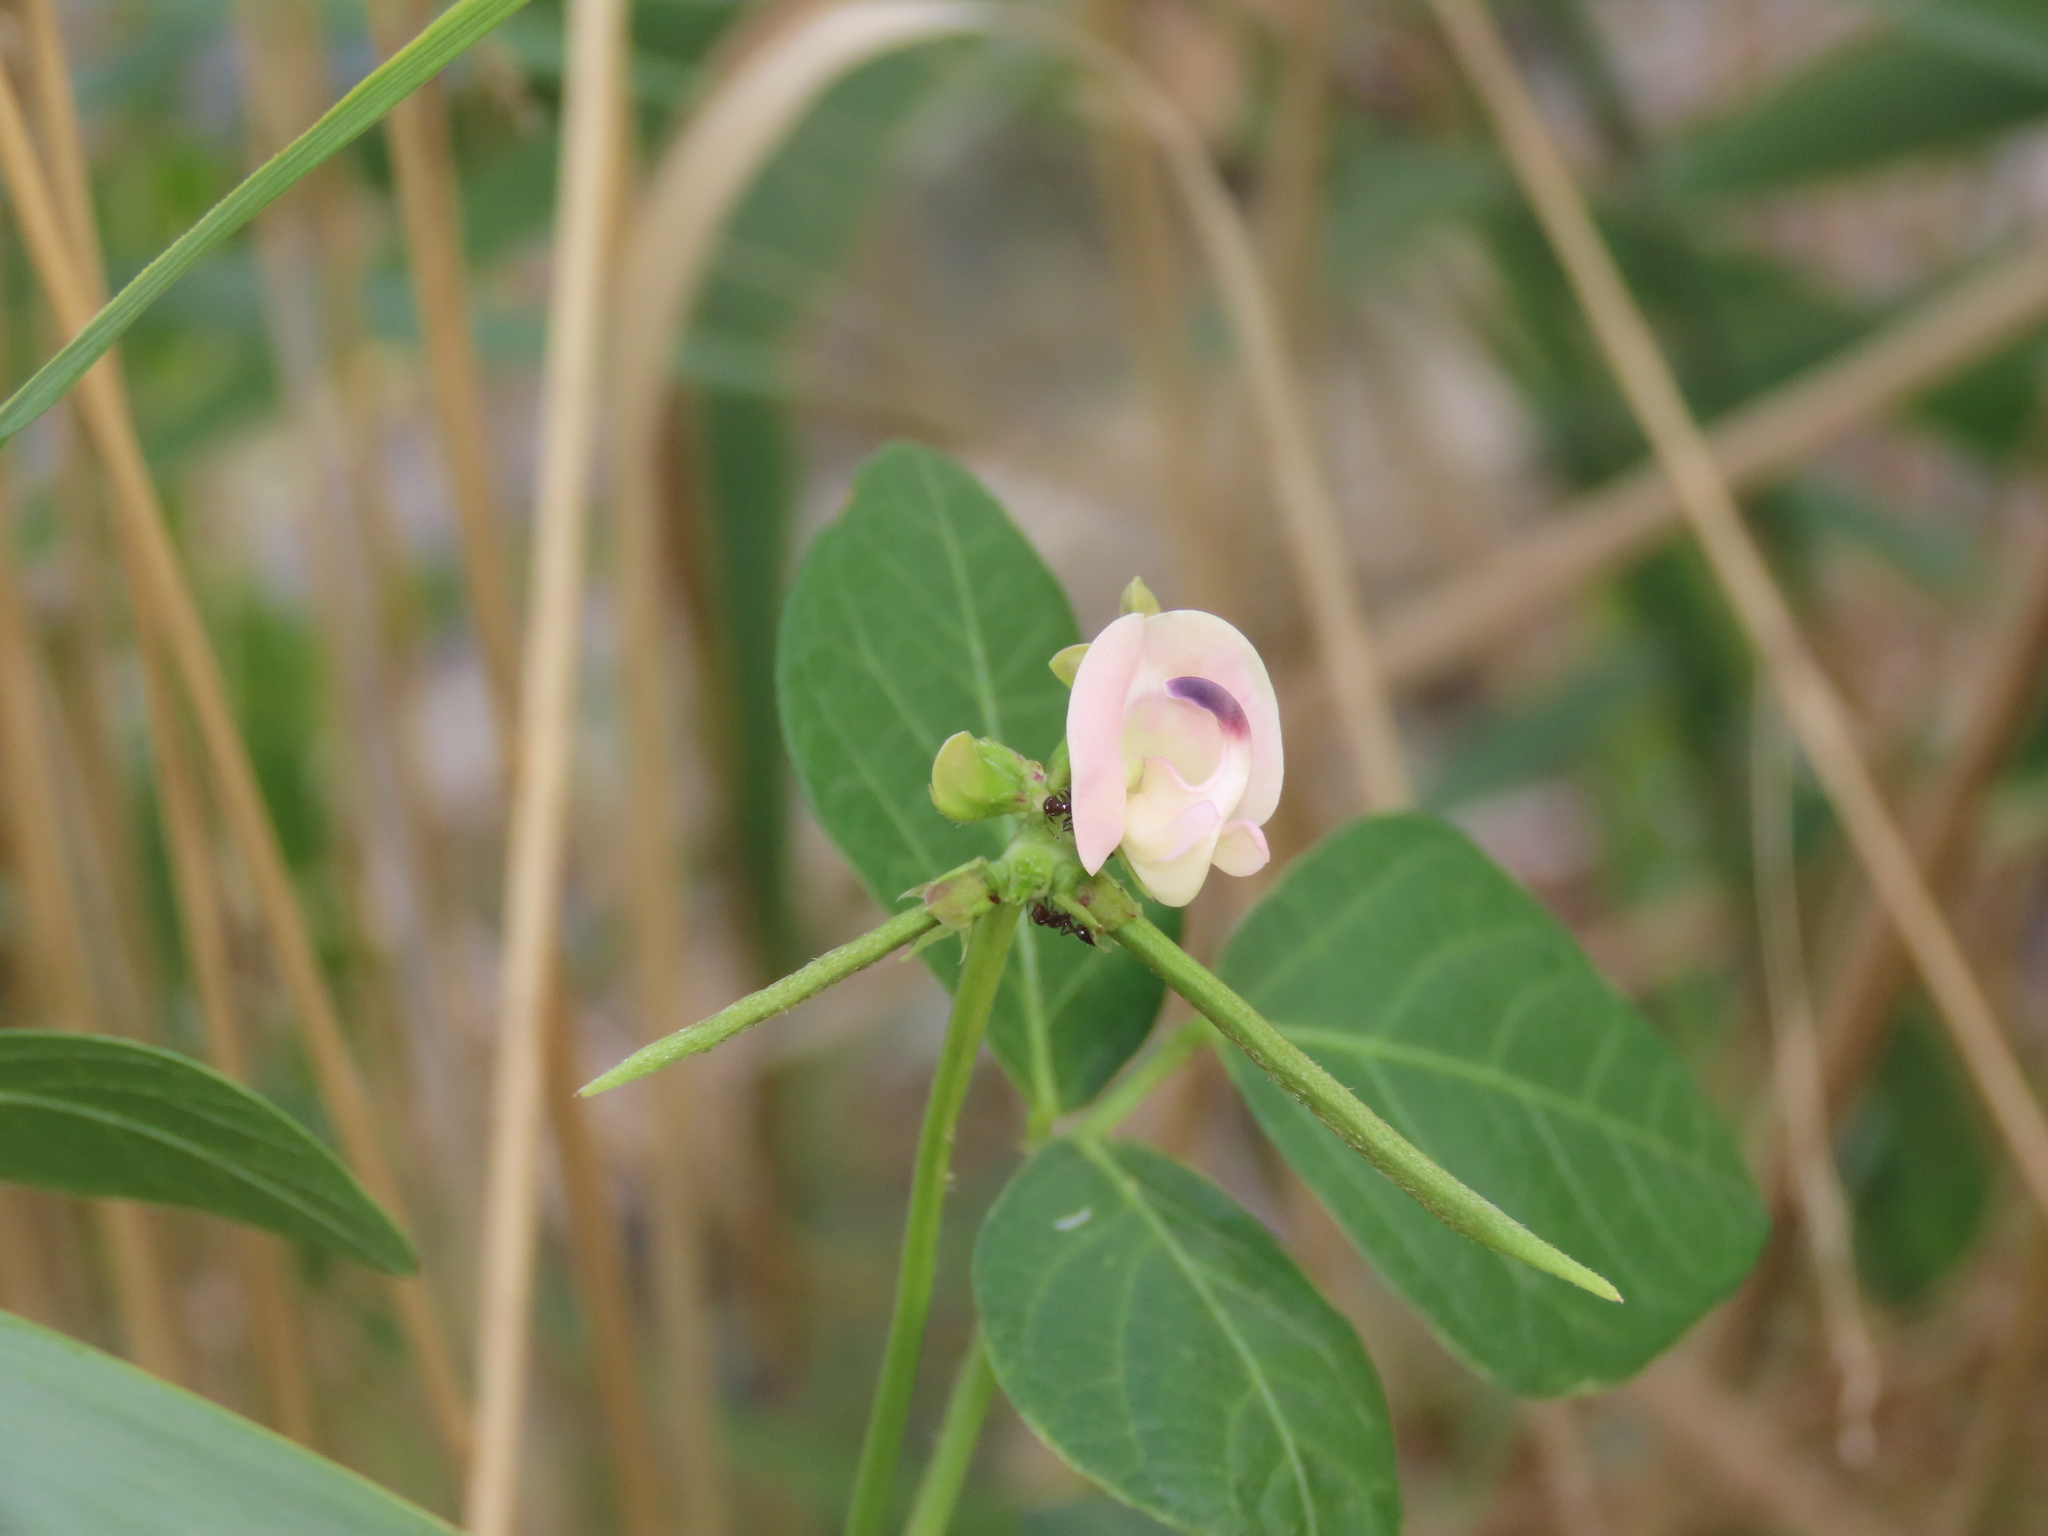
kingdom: Plantae
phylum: Tracheophyta
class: Magnoliopsida
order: Fabales
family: Fabaceae
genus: Strophostyles
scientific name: Strophostyles helvola
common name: Trailing wild bean
